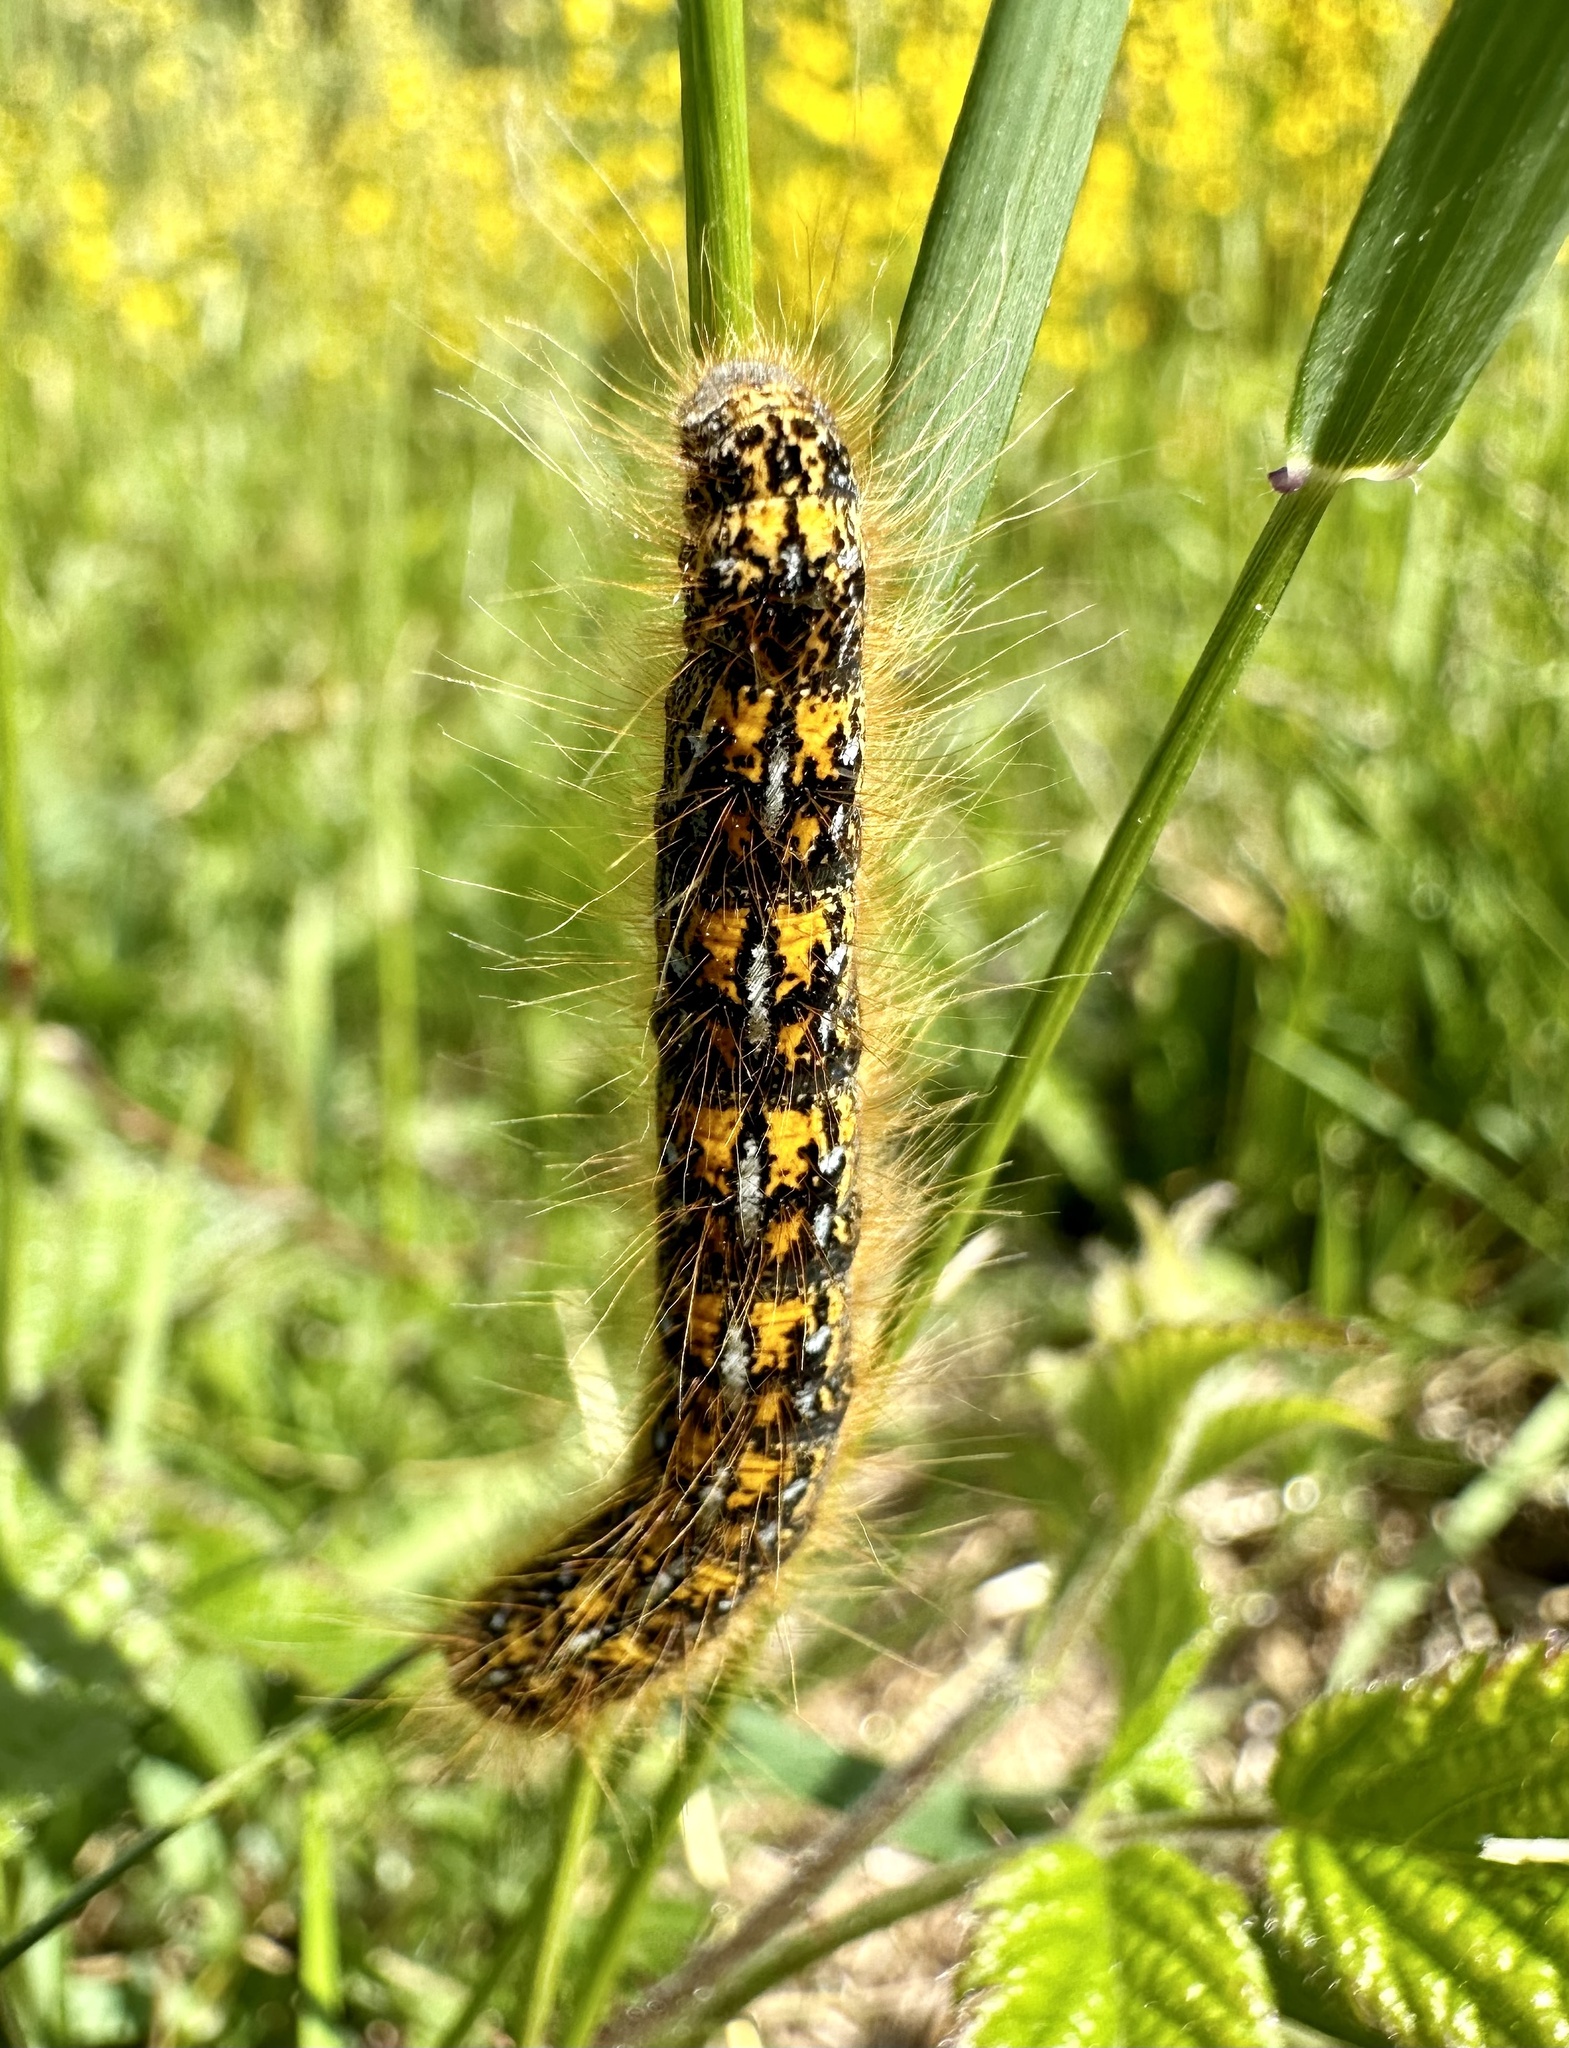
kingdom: Animalia
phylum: Arthropoda
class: Insecta
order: Lepidoptera
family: Lasiocampidae
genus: Malacosoma
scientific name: Malacosoma californica
